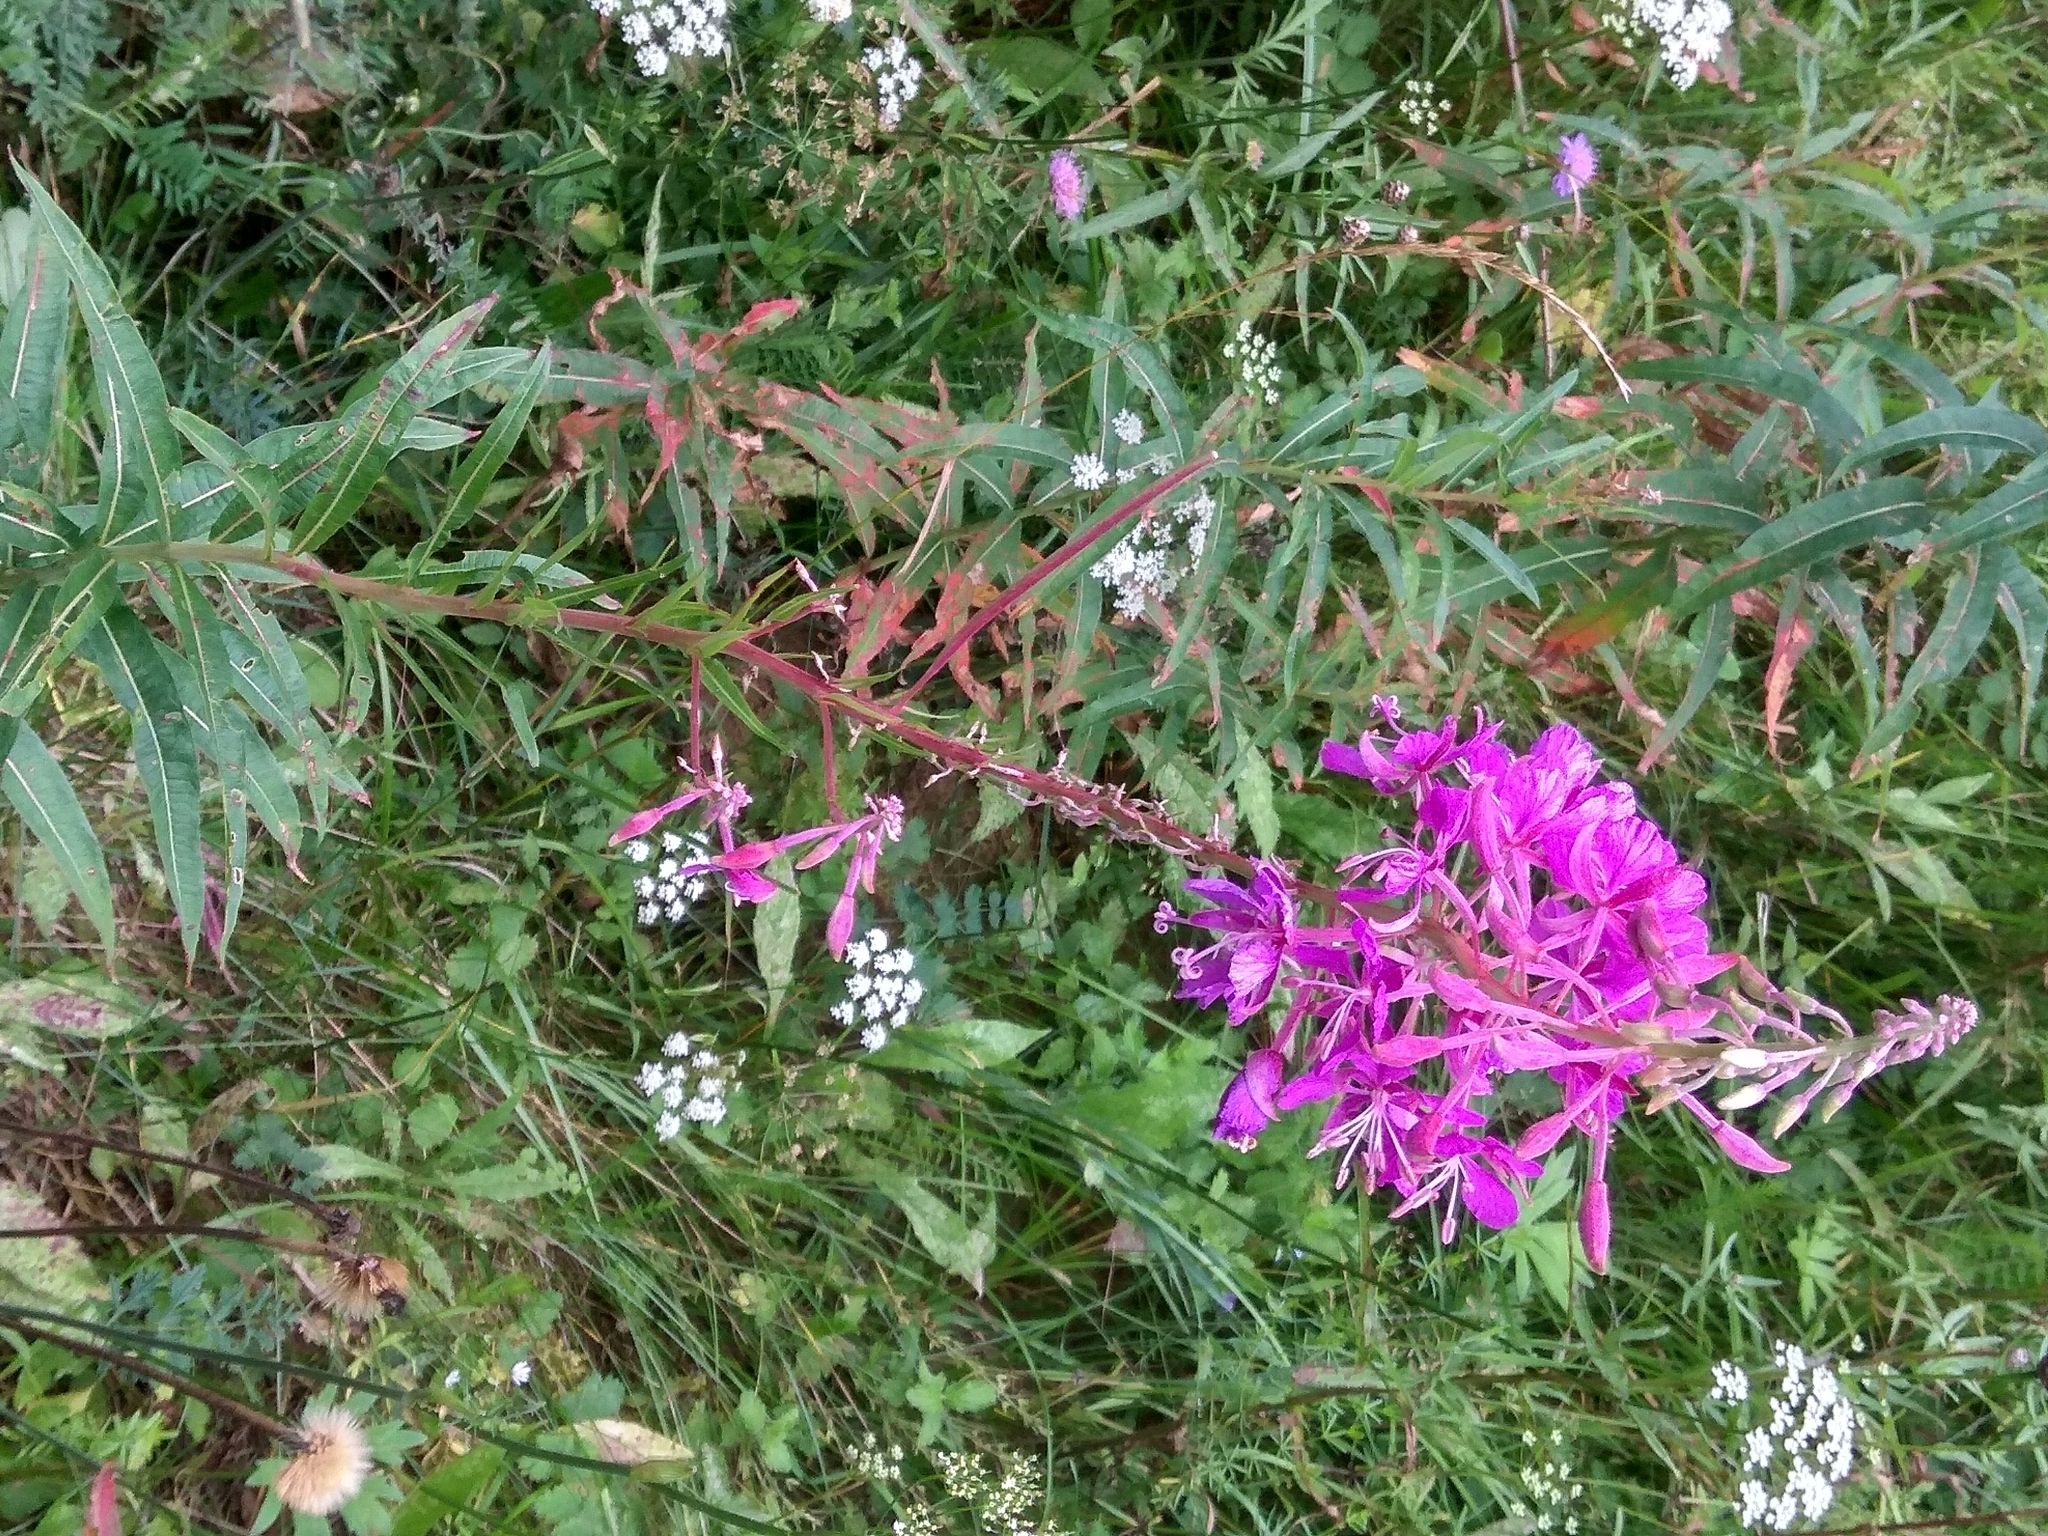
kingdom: Plantae
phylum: Tracheophyta
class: Magnoliopsida
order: Myrtales
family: Onagraceae
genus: Chamaenerion
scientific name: Chamaenerion angustifolium
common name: Fireweed
